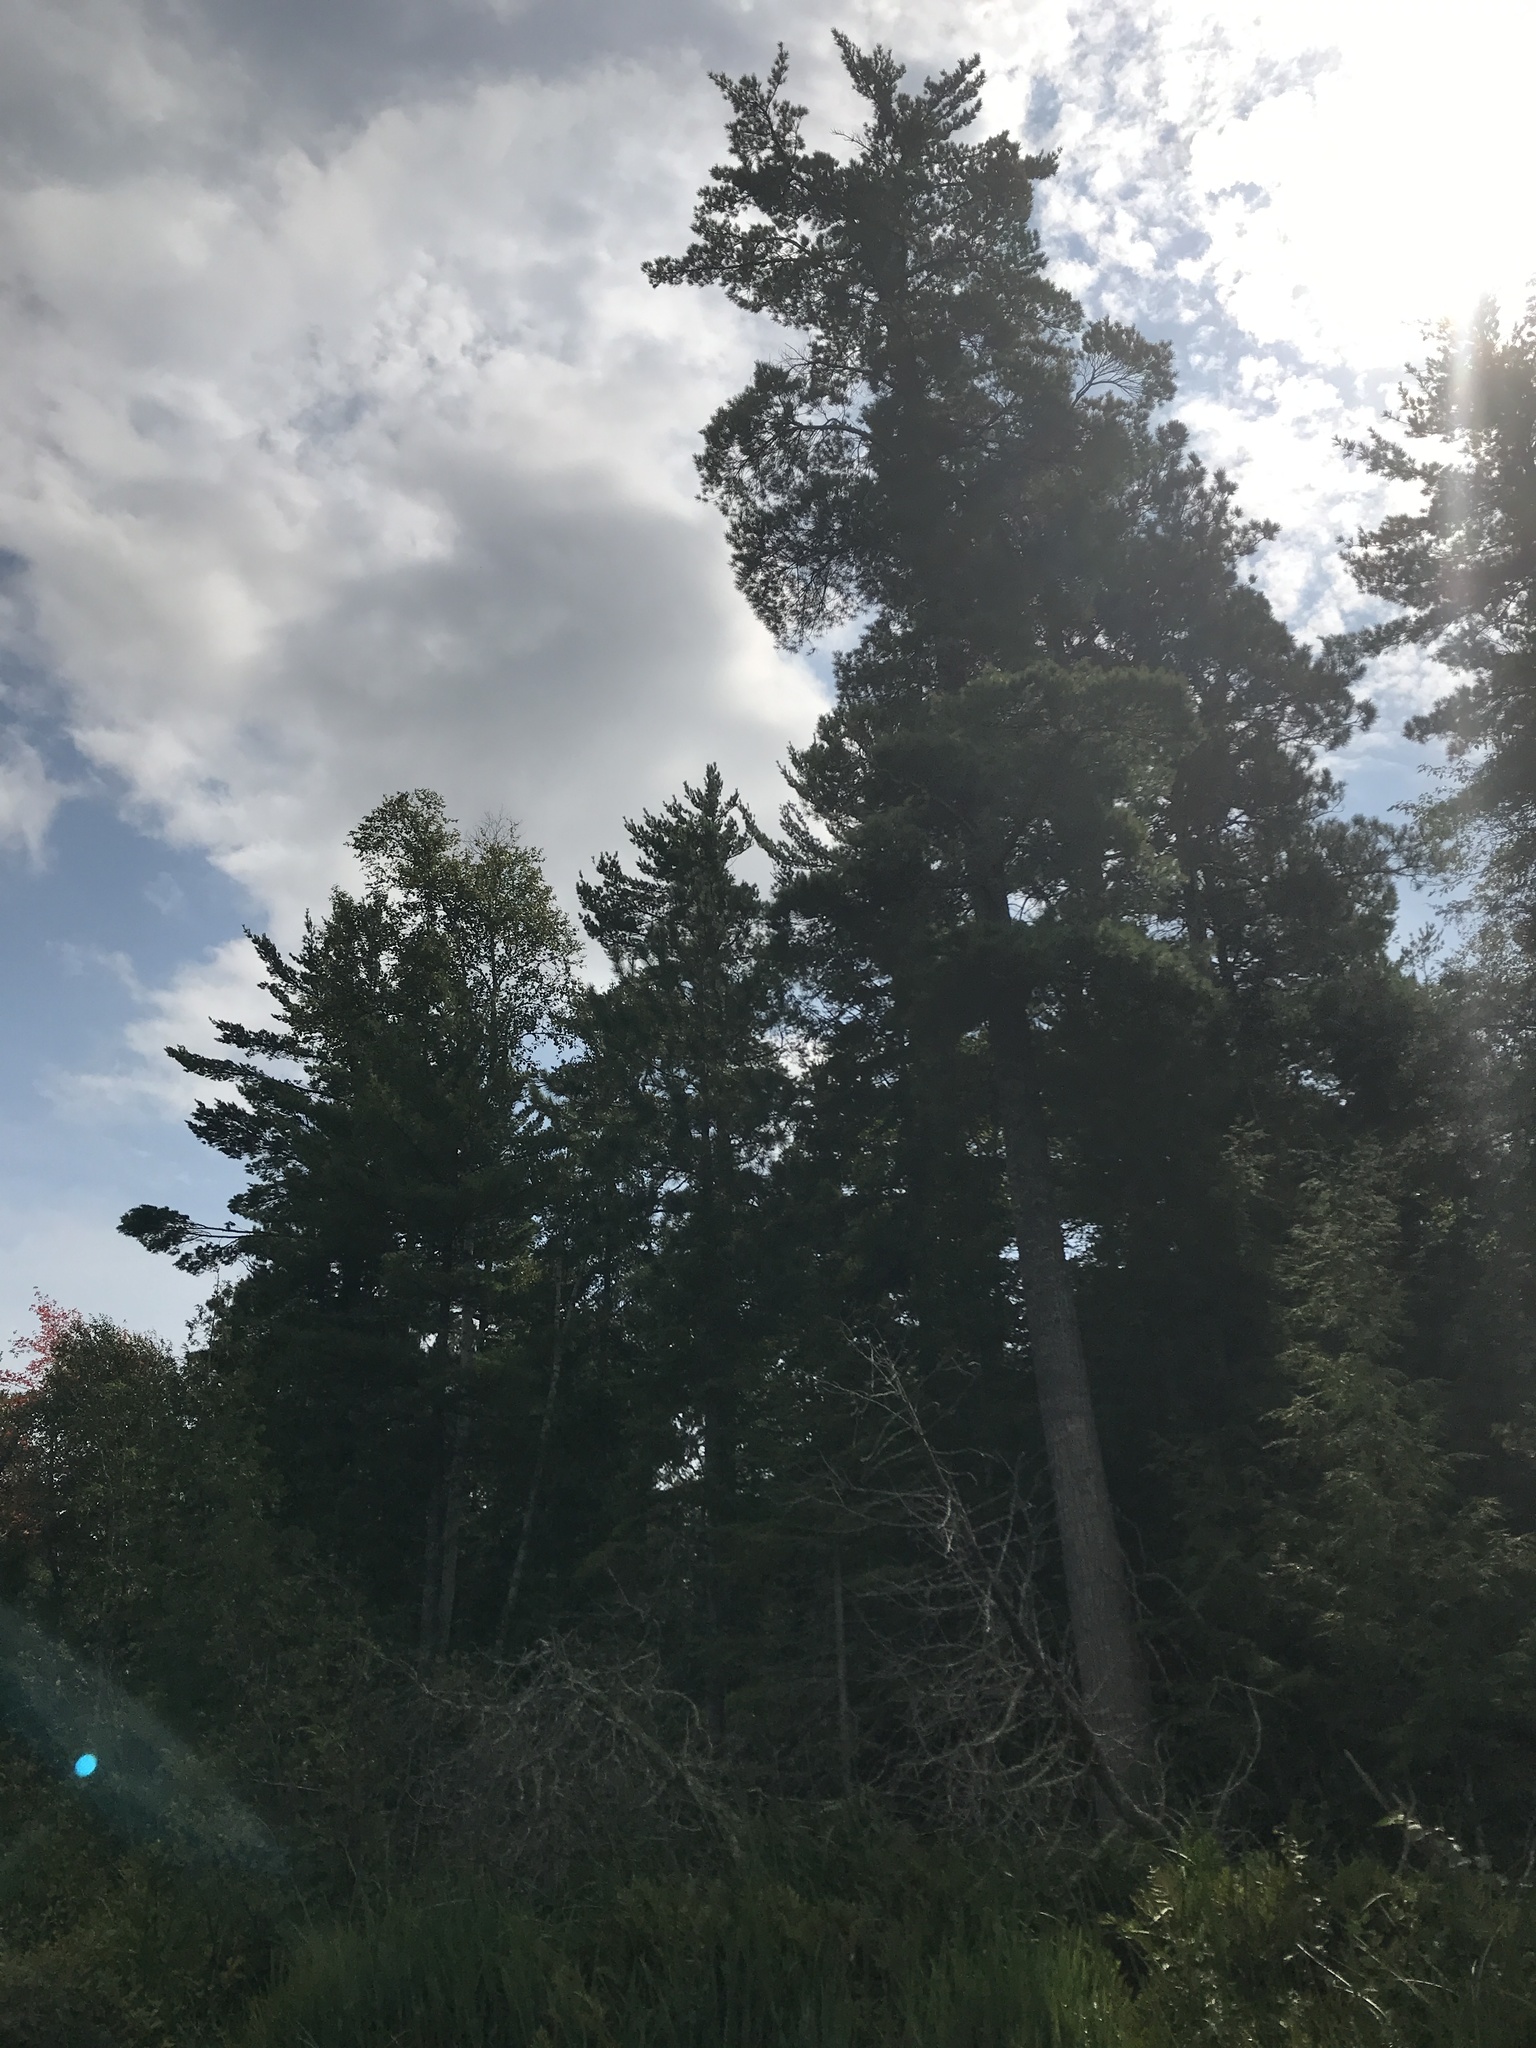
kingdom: Plantae
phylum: Tracheophyta
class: Pinopsida
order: Pinales
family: Pinaceae
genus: Pinus
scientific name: Pinus strobus
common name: Weymouth pine
